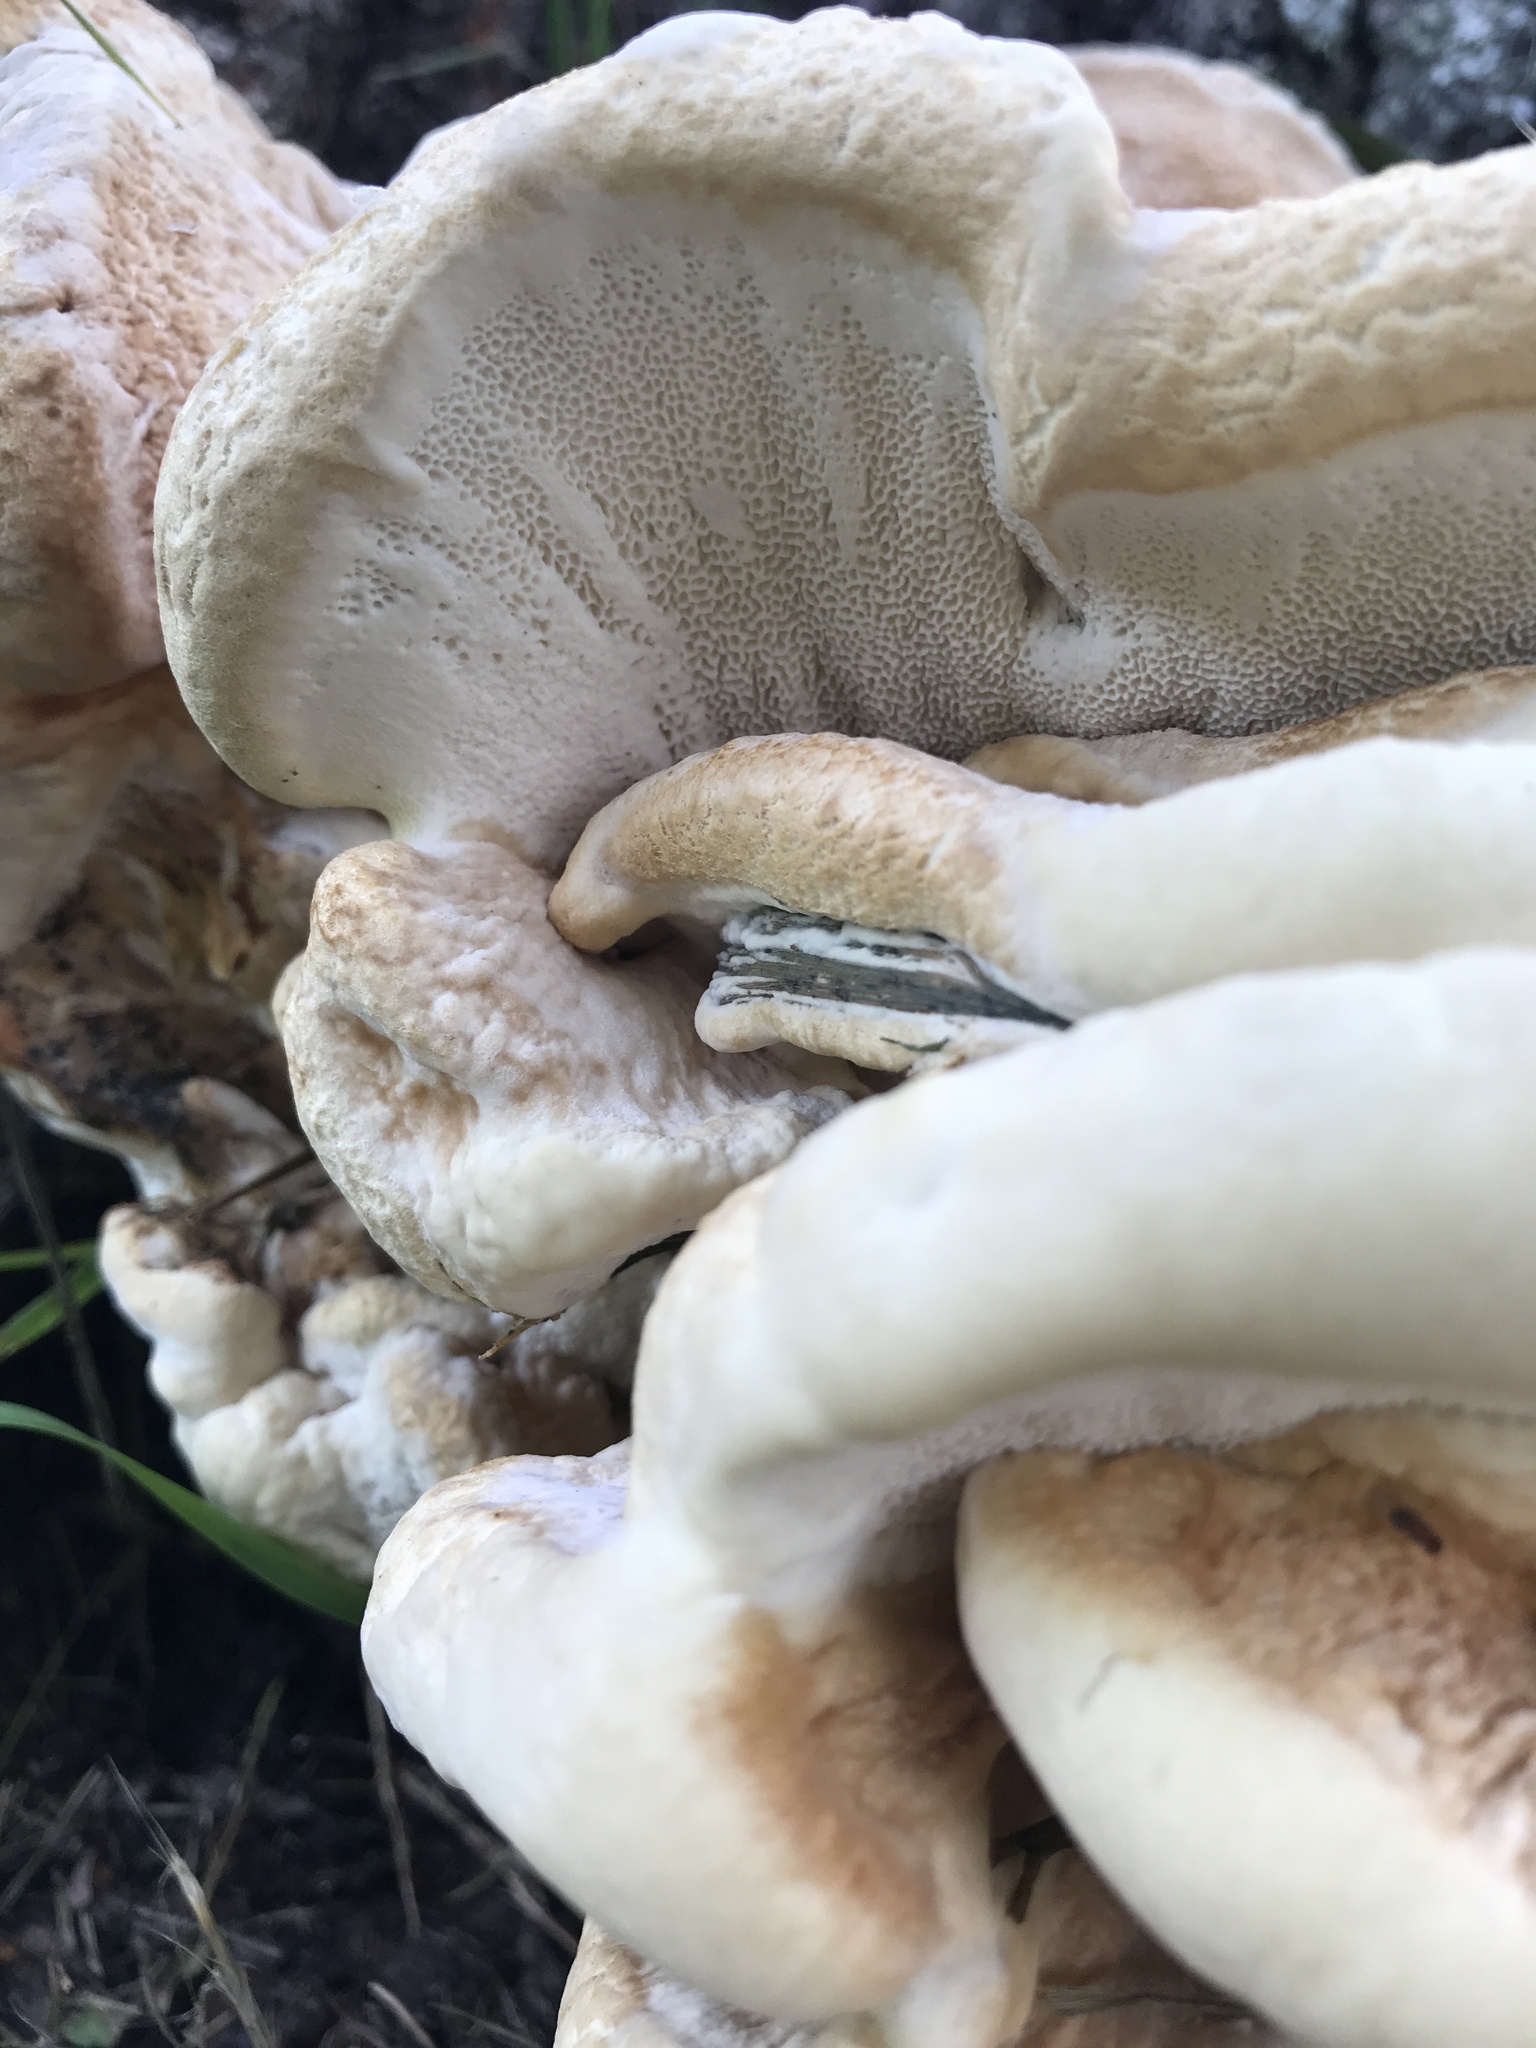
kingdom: Fungi
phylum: Basidiomycota
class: Agaricomycetes
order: Russulales
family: Bondarzewiaceae
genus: Bondarzewia
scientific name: Bondarzewia berkeleyi
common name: Berkeley's polypore
